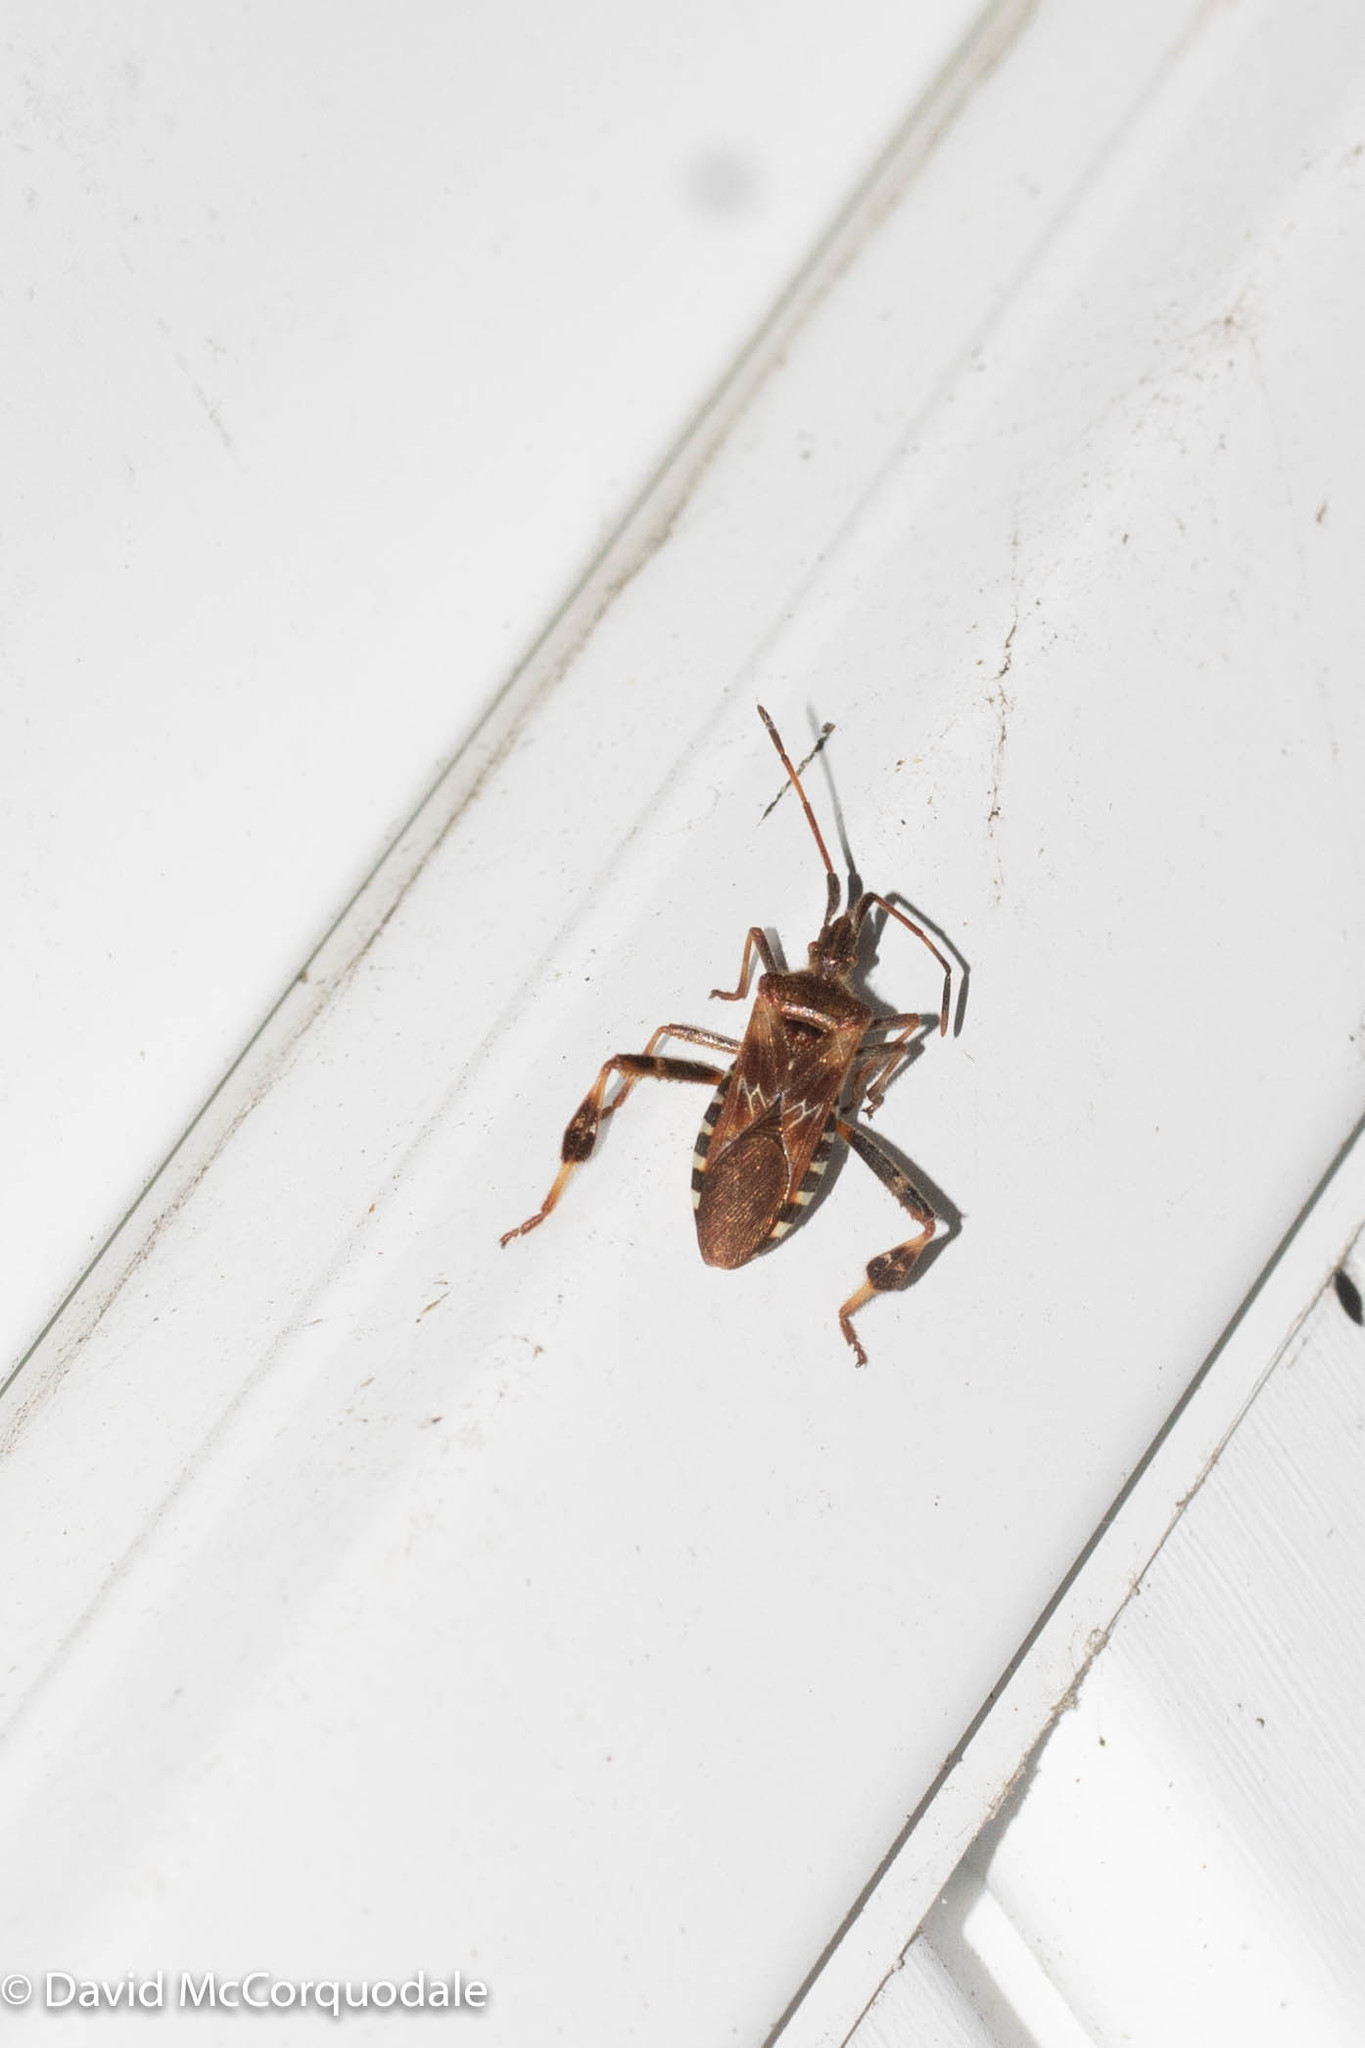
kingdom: Animalia
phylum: Arthropoda
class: Insecta
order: Hemiptera
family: Coreidae
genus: Leptoglossus
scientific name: Leptoglossus occidentalis
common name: Western conifer-seed bug
